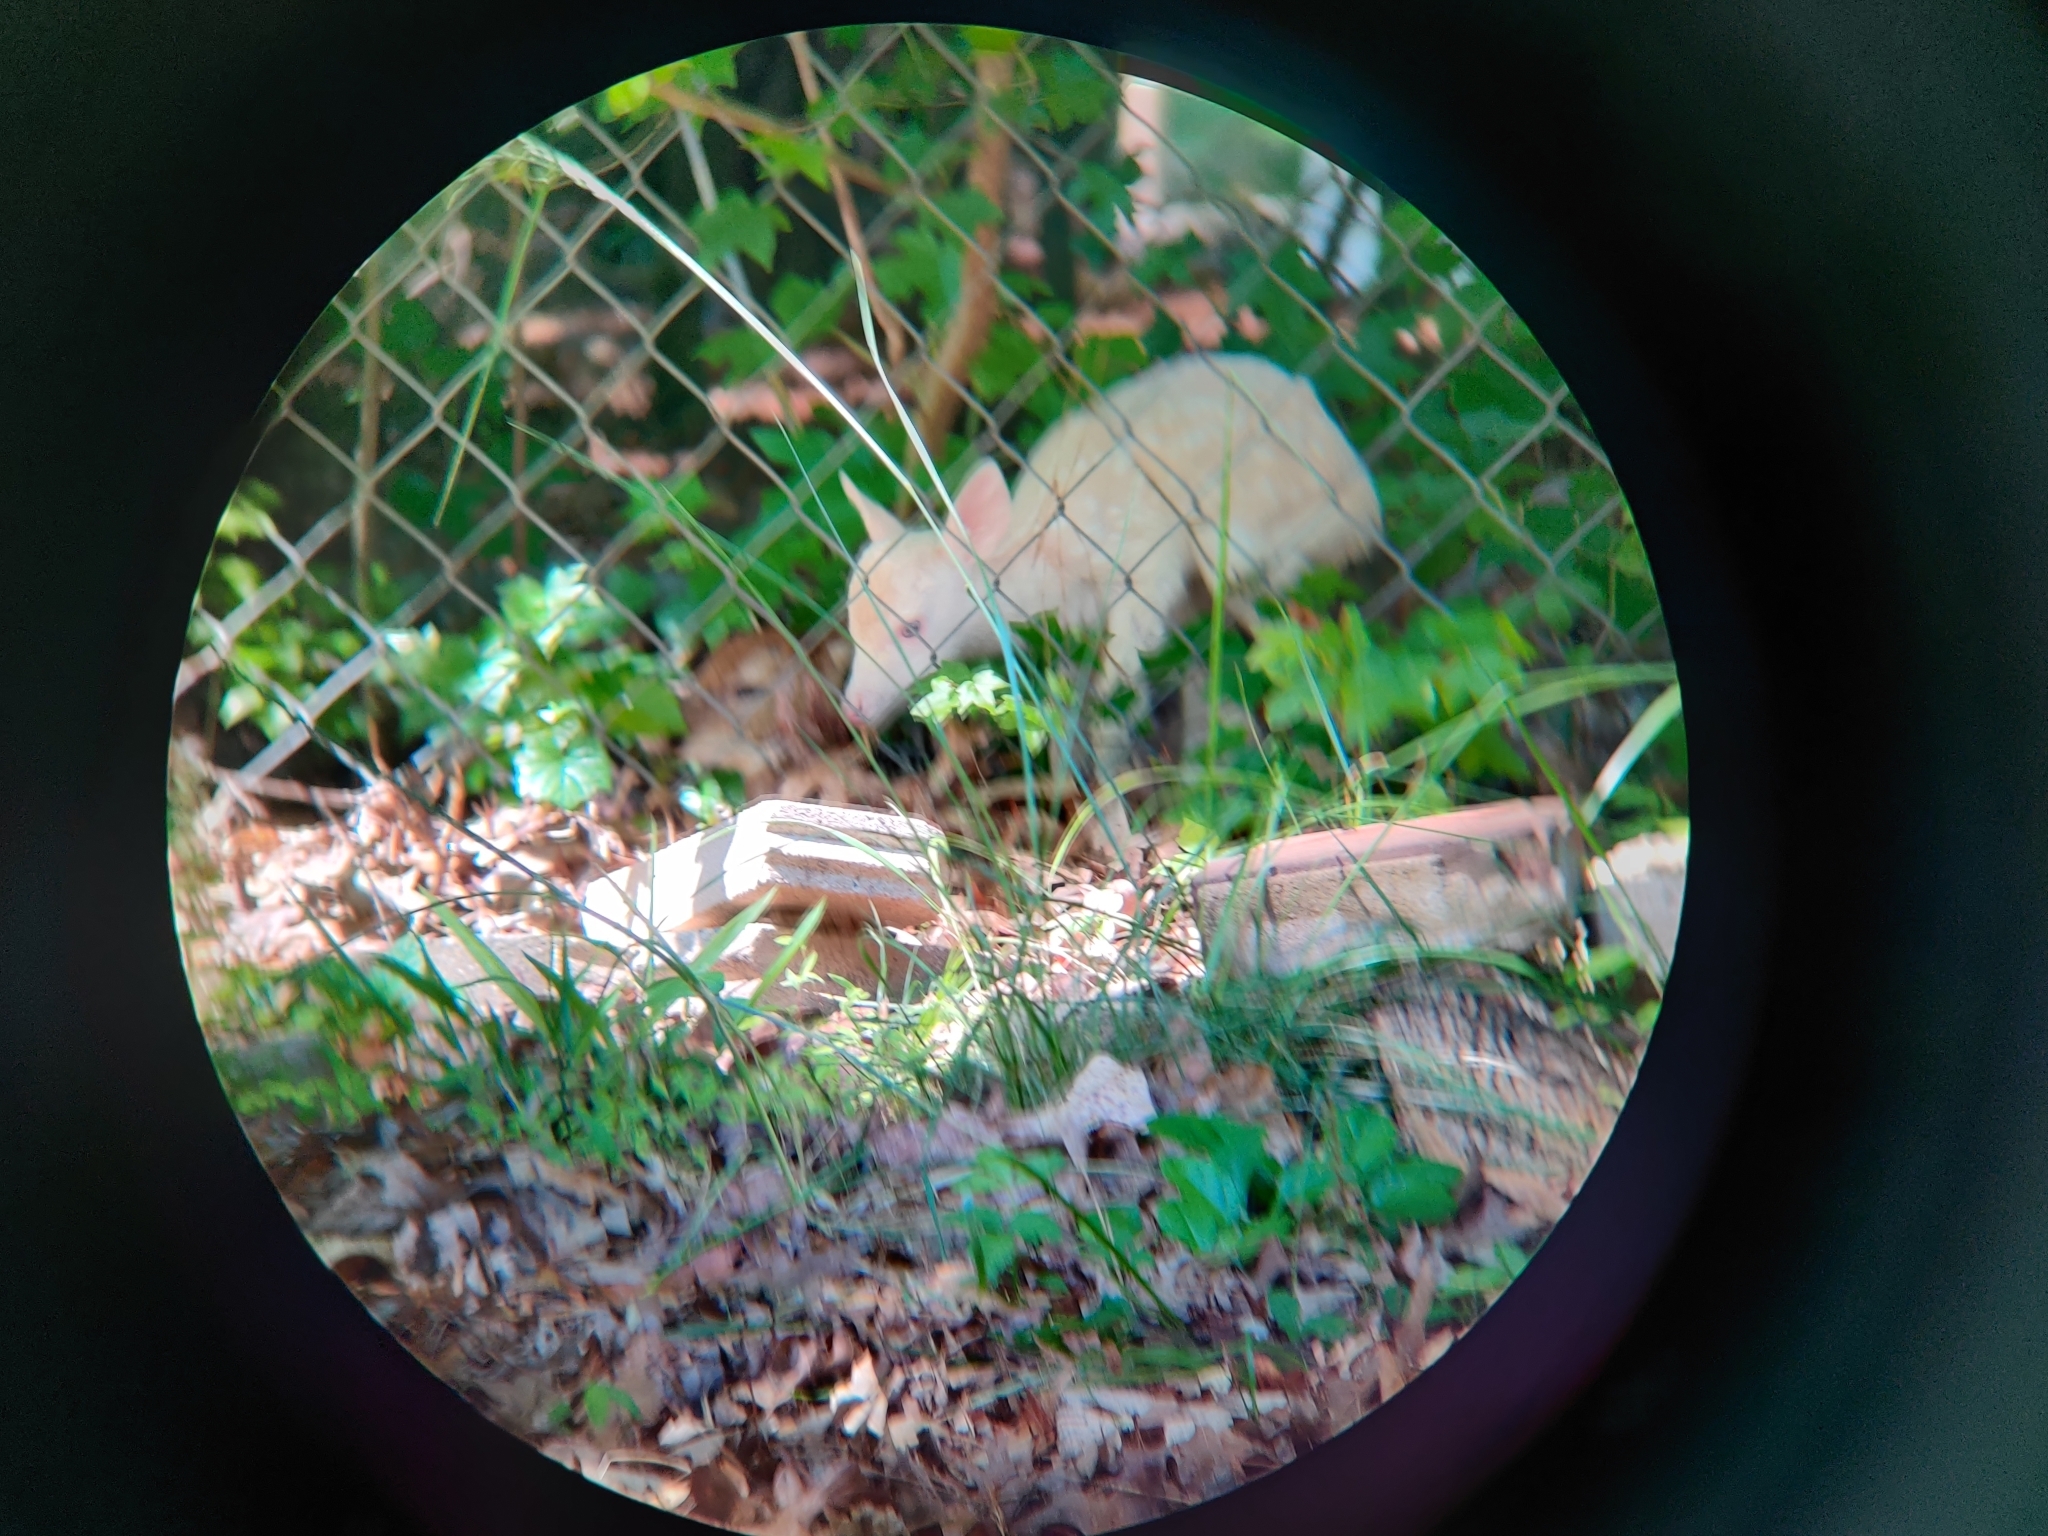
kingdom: Animalia
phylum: Chordata
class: Mammalia
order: Artiodactyla
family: Cervidae
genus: Odocoileus
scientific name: Odocoileus virginianus
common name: White-tailed deer
